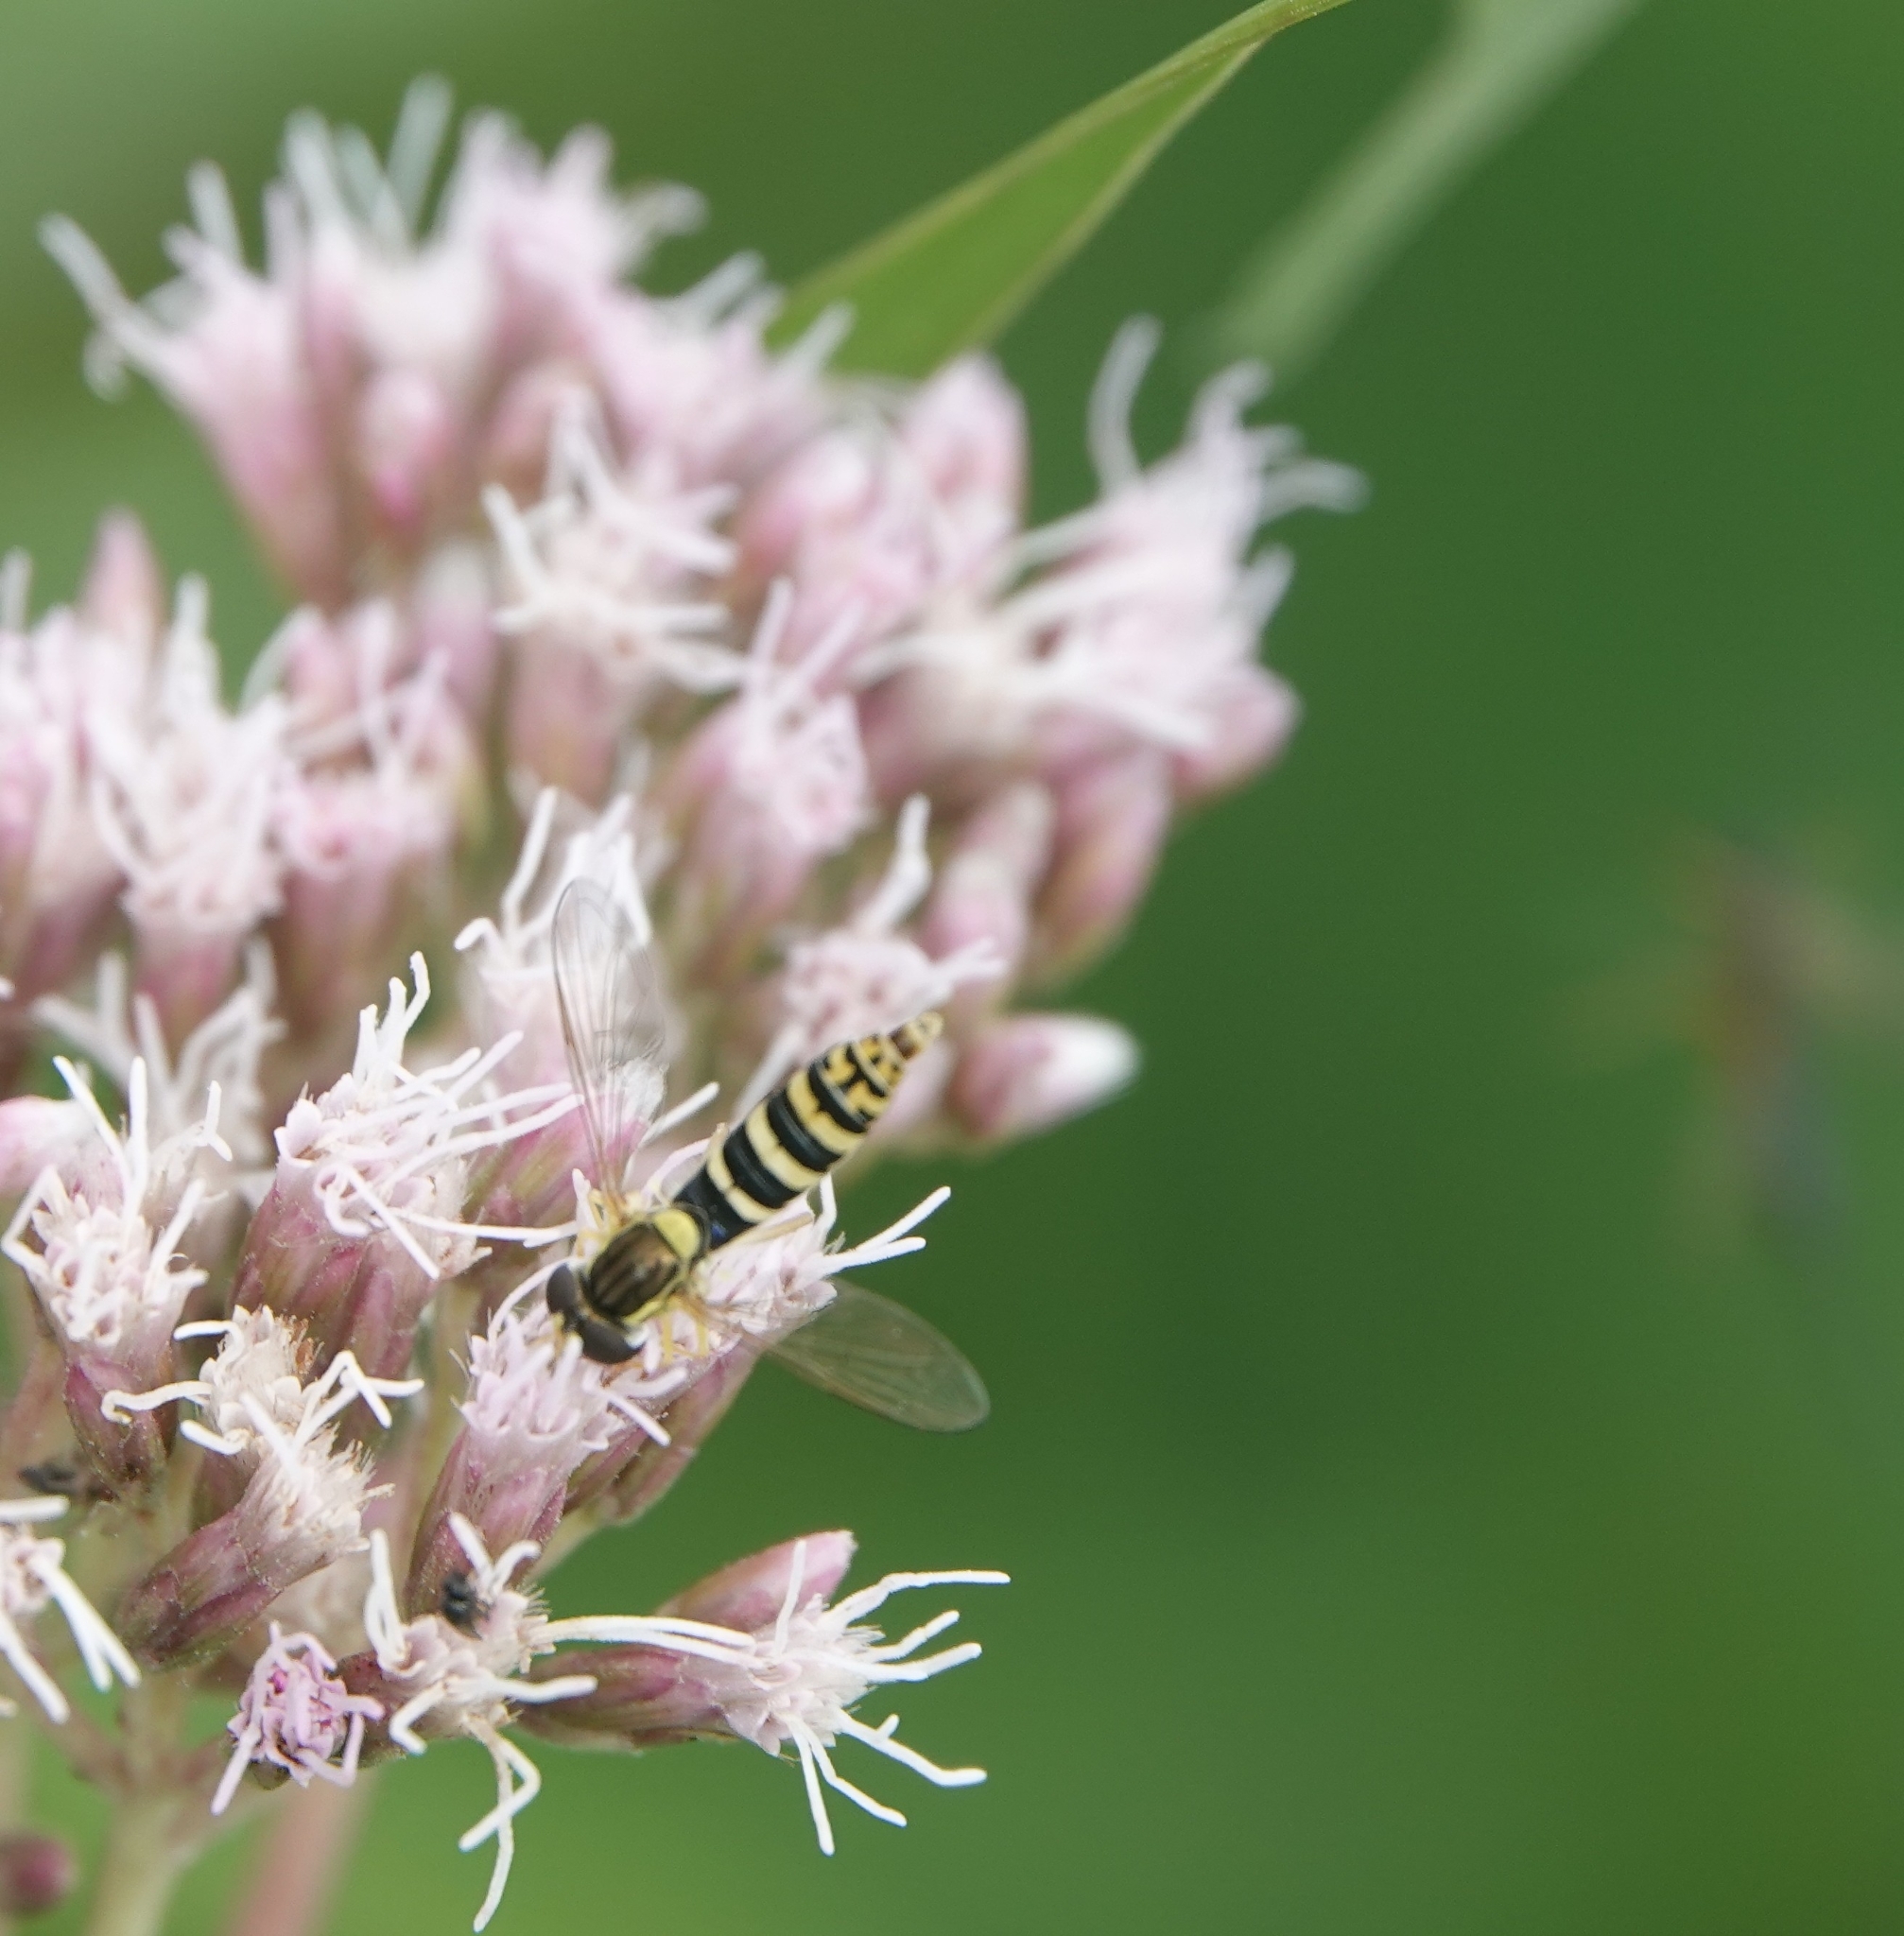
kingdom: Animalia
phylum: Arthropoda
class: Insecta
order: Diptera
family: Syrphidae
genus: Sphaerophoria
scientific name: Sphaerophoria
